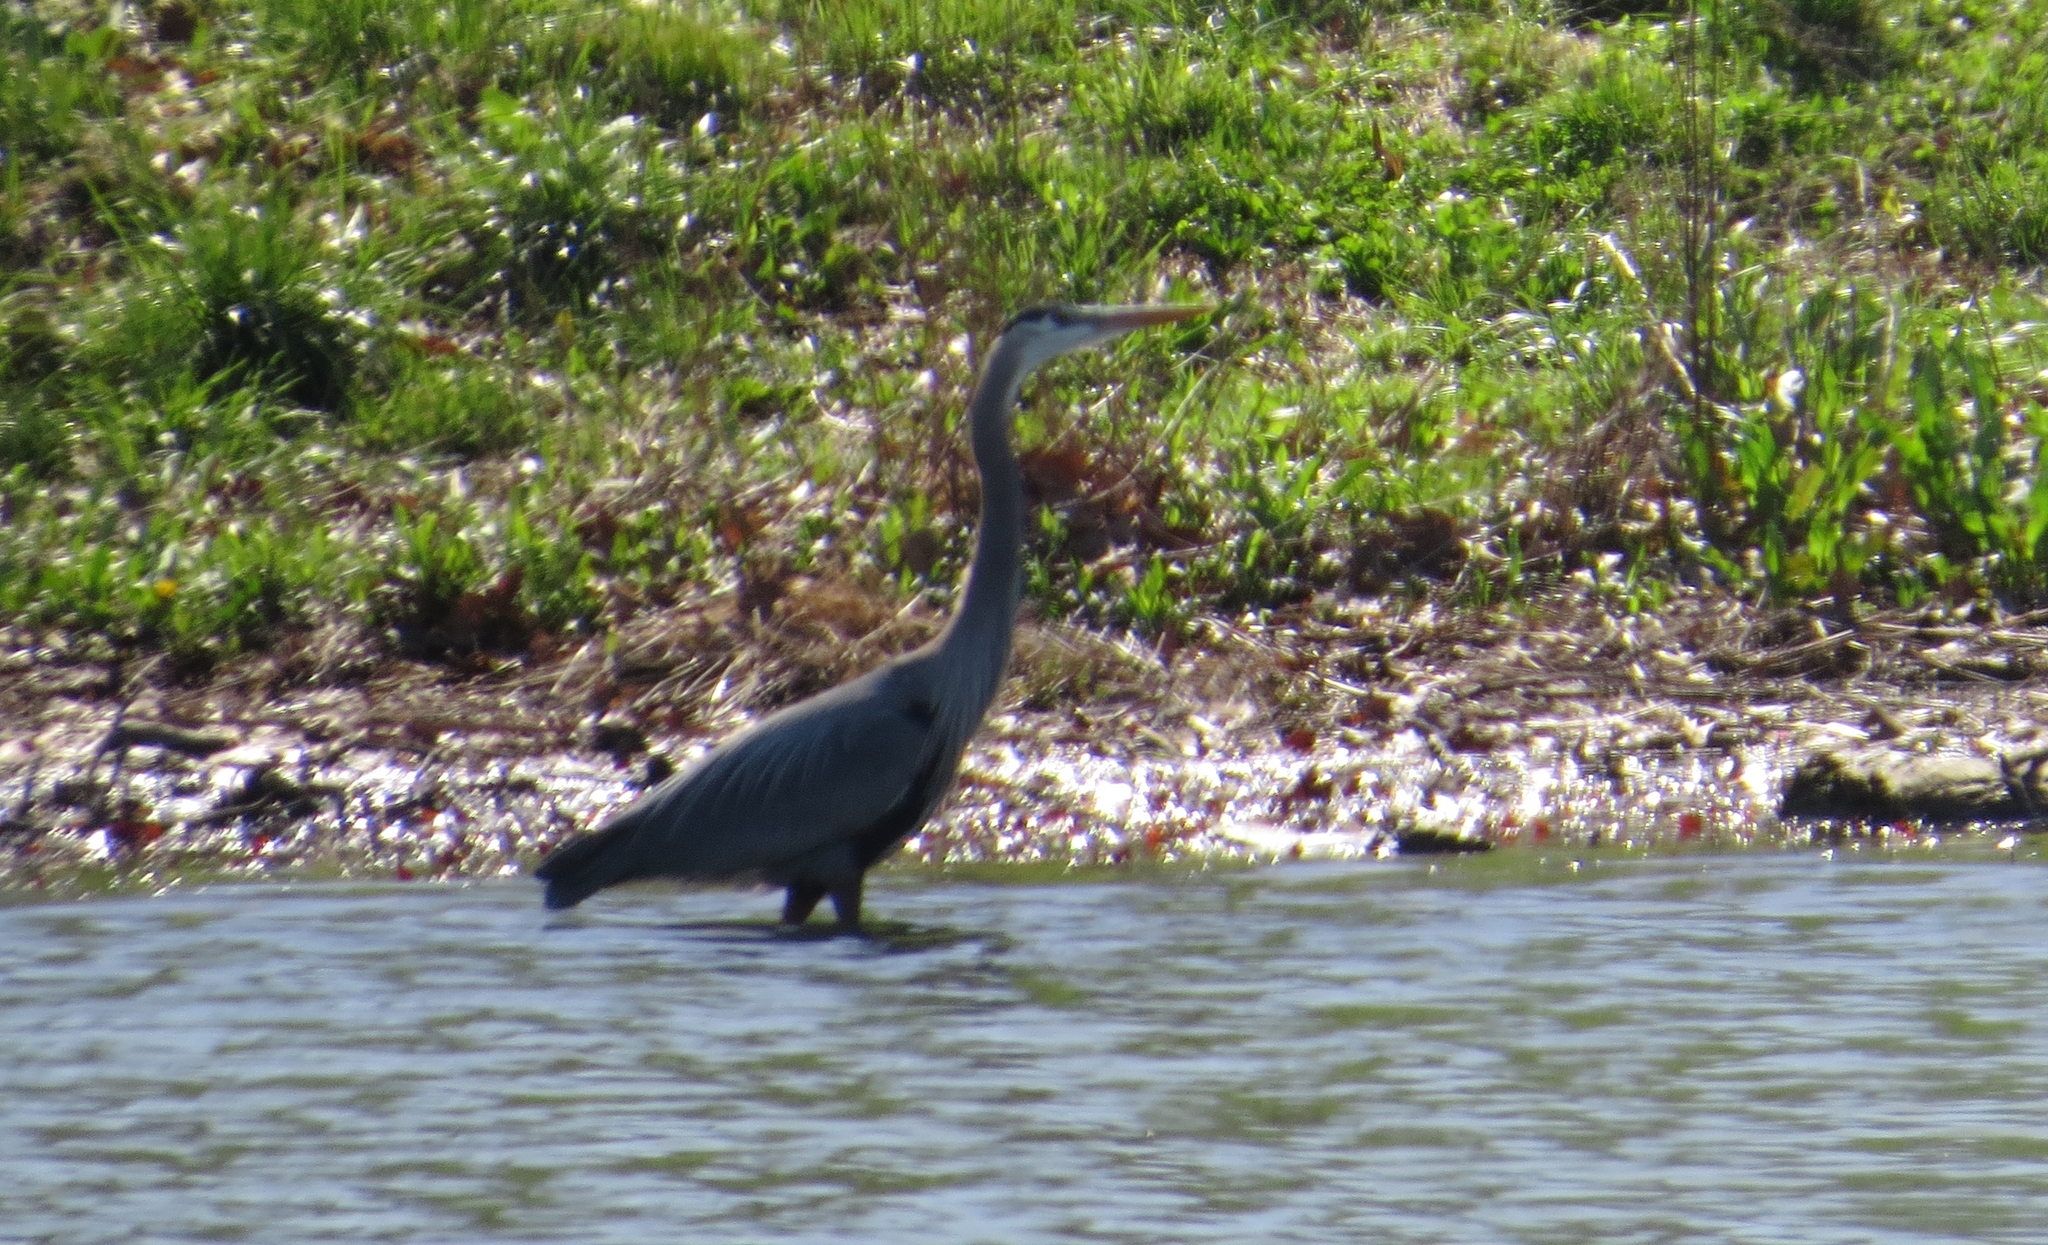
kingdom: Animalia
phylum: Chordata
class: Aves
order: Pelecaniformes
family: Ardeidae
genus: Ardea
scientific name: Ardea herodias
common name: Great blue heron
